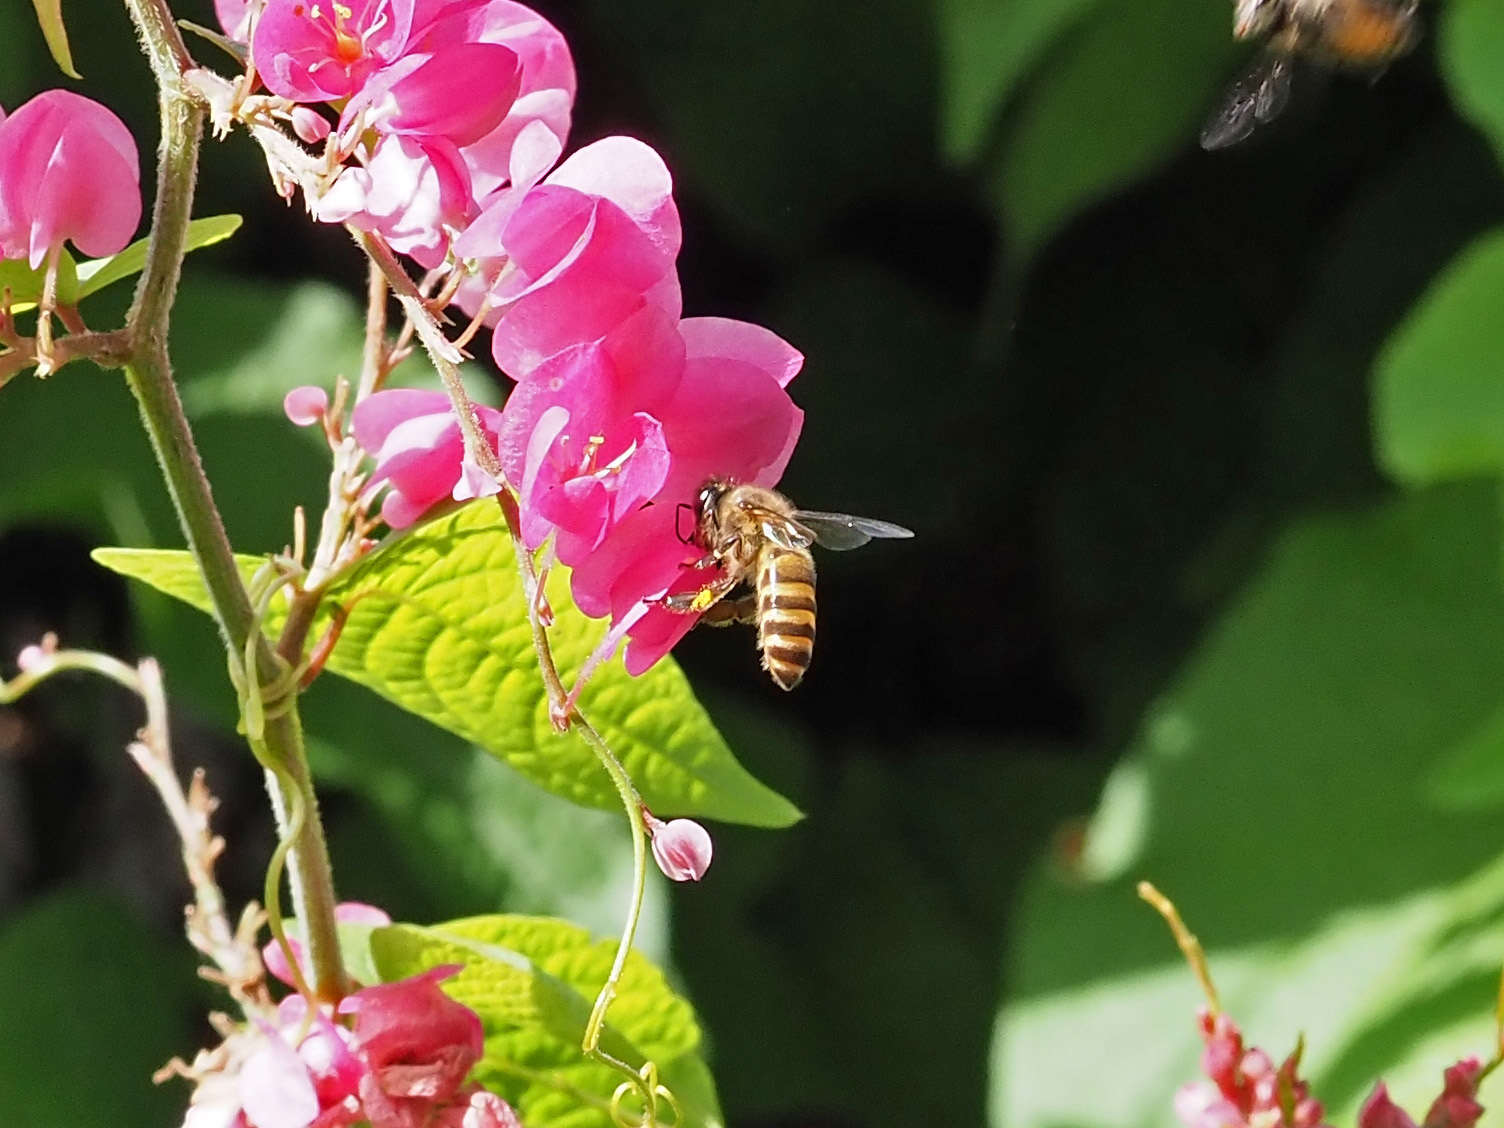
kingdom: Animalia
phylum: Arthropoda
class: Insecta
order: Hymenoptera
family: Apidae
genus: Apis
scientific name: Apis cerana
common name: Honey bee
